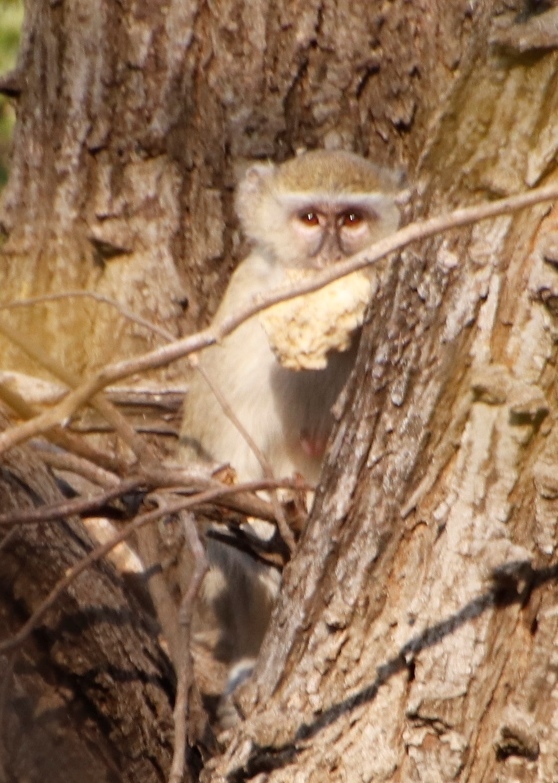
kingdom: Animalia
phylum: Chordata
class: Mammalia
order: Primates
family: Cercopithecidae
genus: Chlorocebus
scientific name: Chlorocebus cynosuros
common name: Malbrouck
